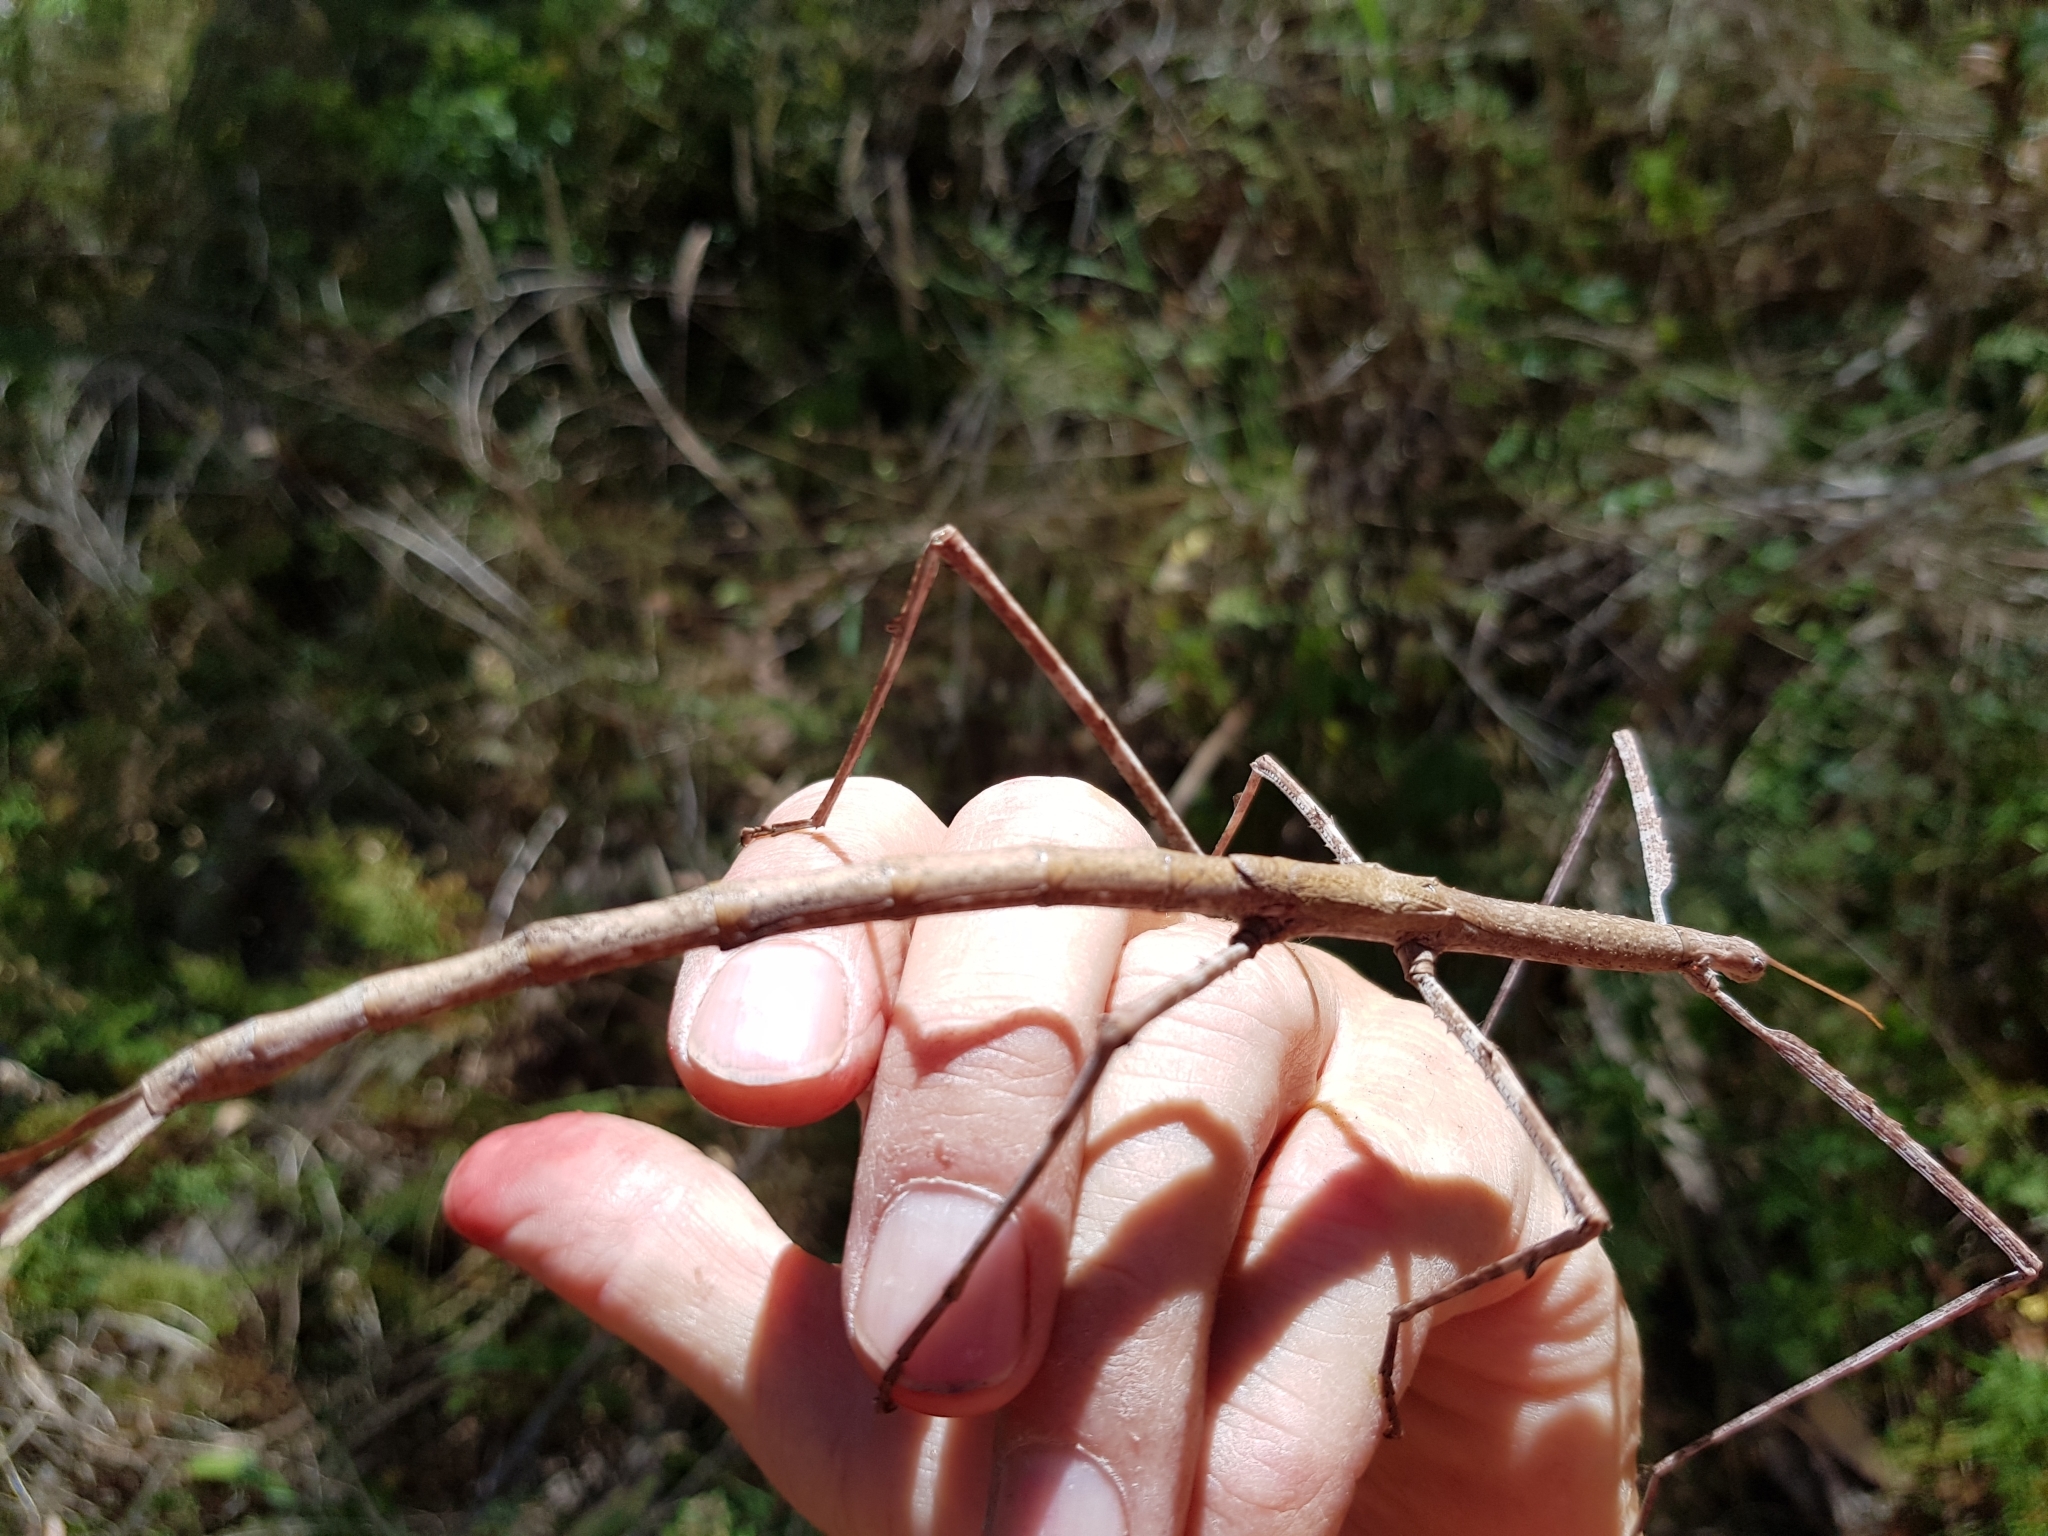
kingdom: Animalia
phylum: Arthropoda
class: Insecta
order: Phasmida
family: Phasmatidae
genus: Ctenomorpha
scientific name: Ctenomorpha marginipennis
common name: Margined-winged stick-insect
